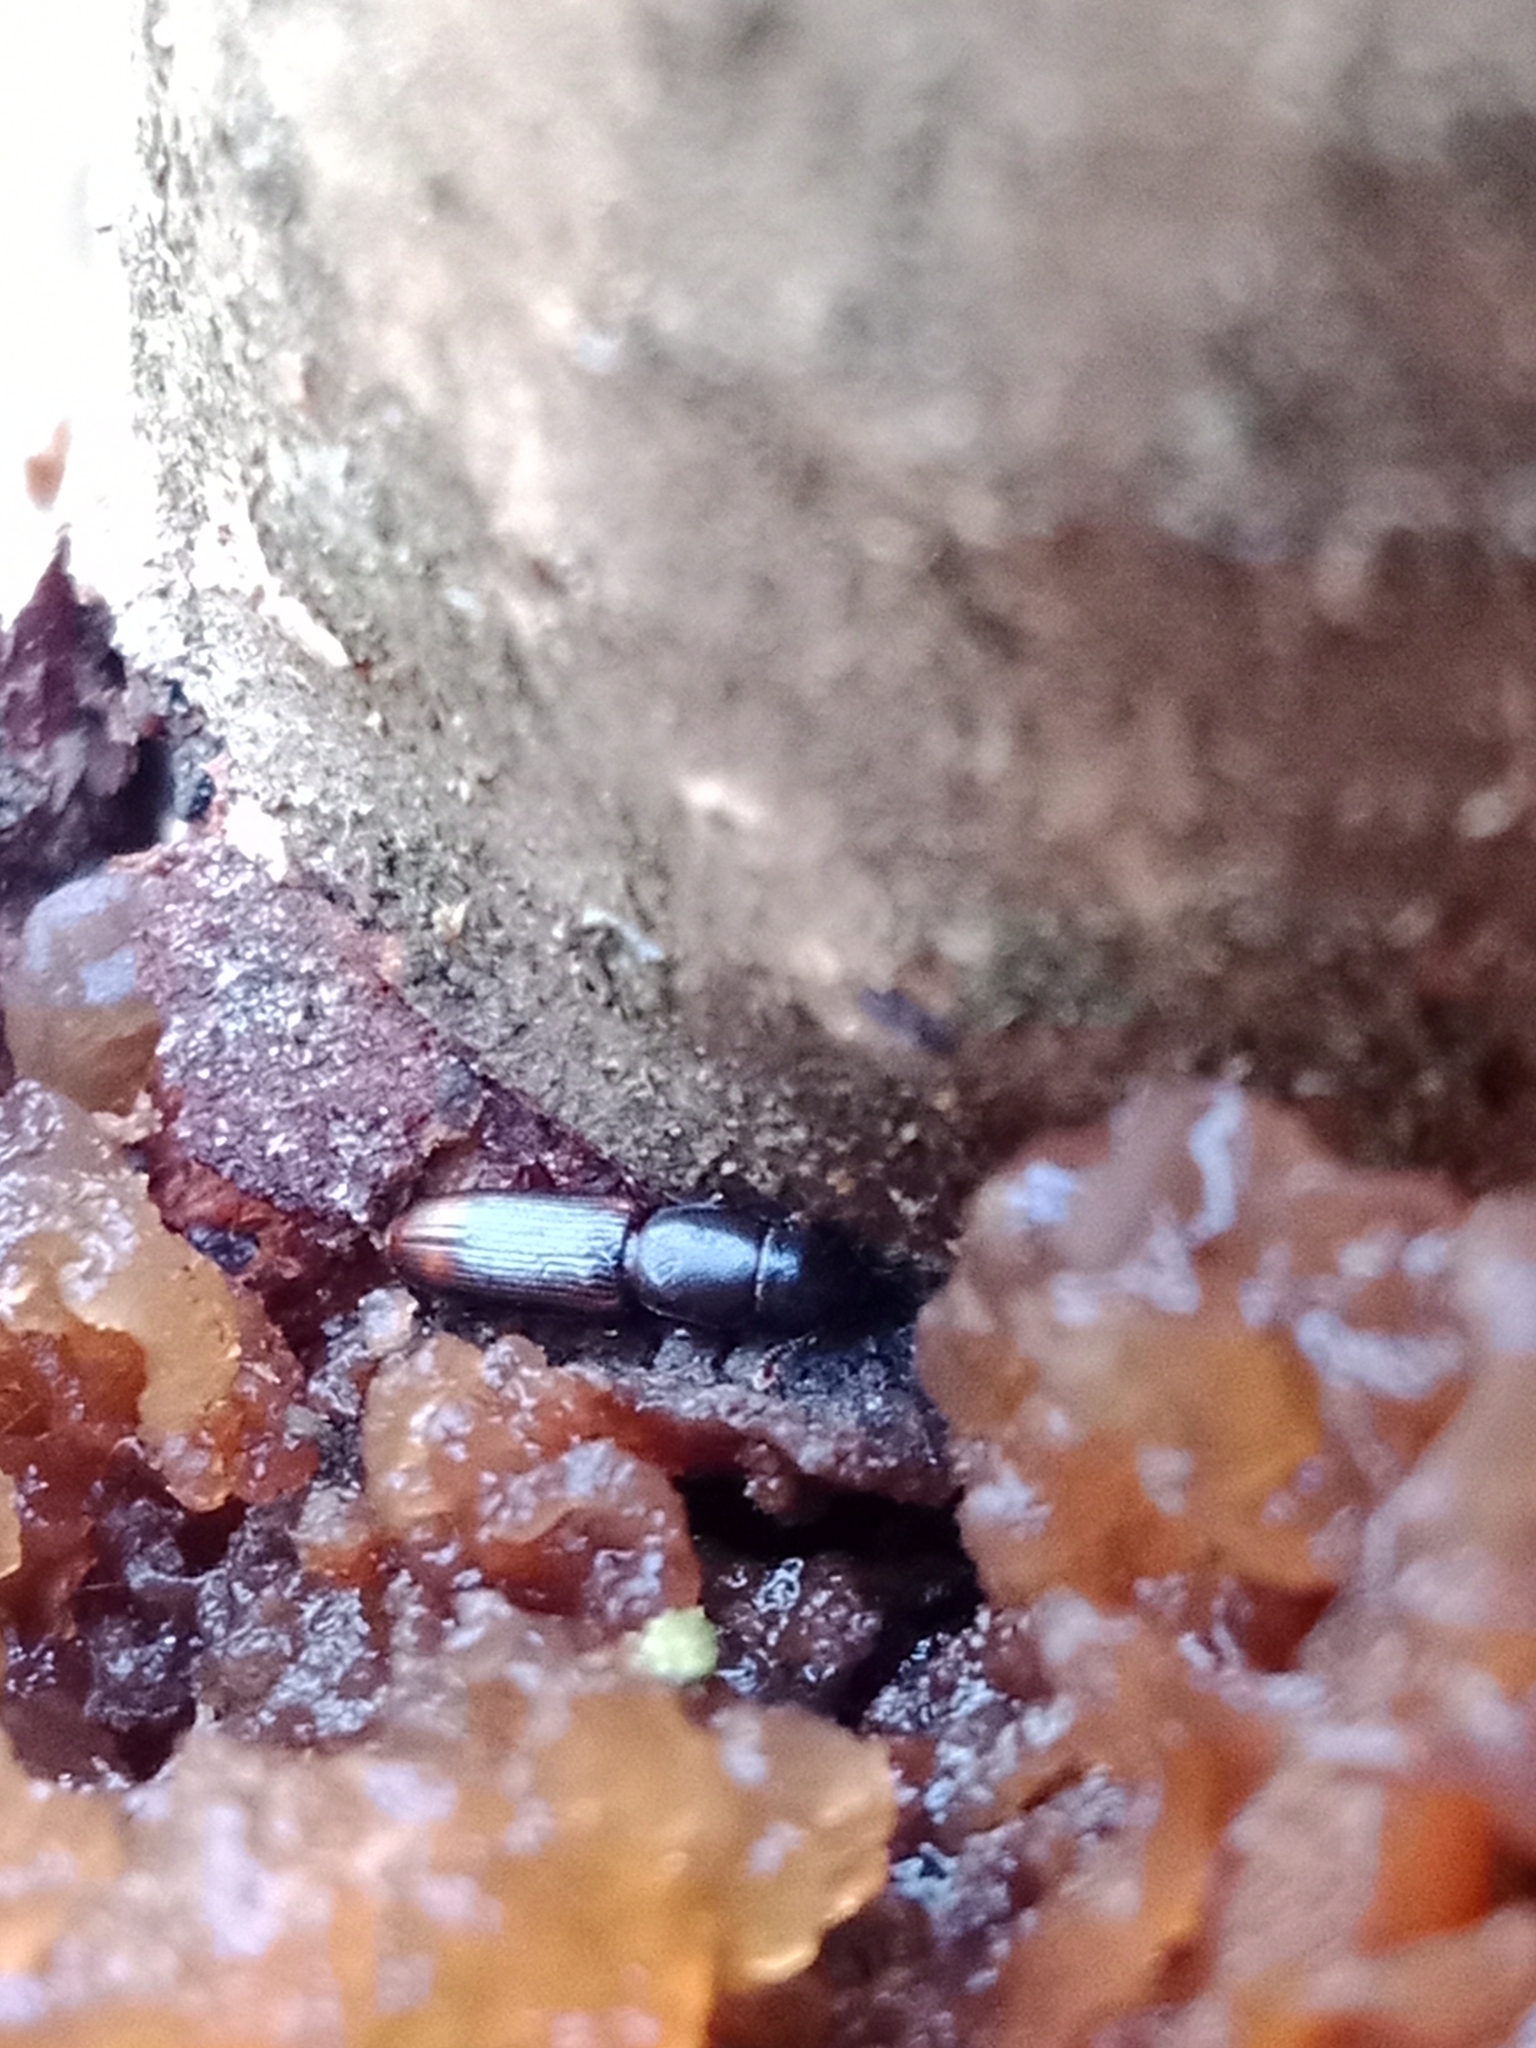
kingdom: Animalia
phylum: Arthropoda
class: Insecta
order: Coleoptera
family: Monotomidae
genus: Rhizophagus
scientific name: Rhizophagus bipustulatus
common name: Root-eating beetle
